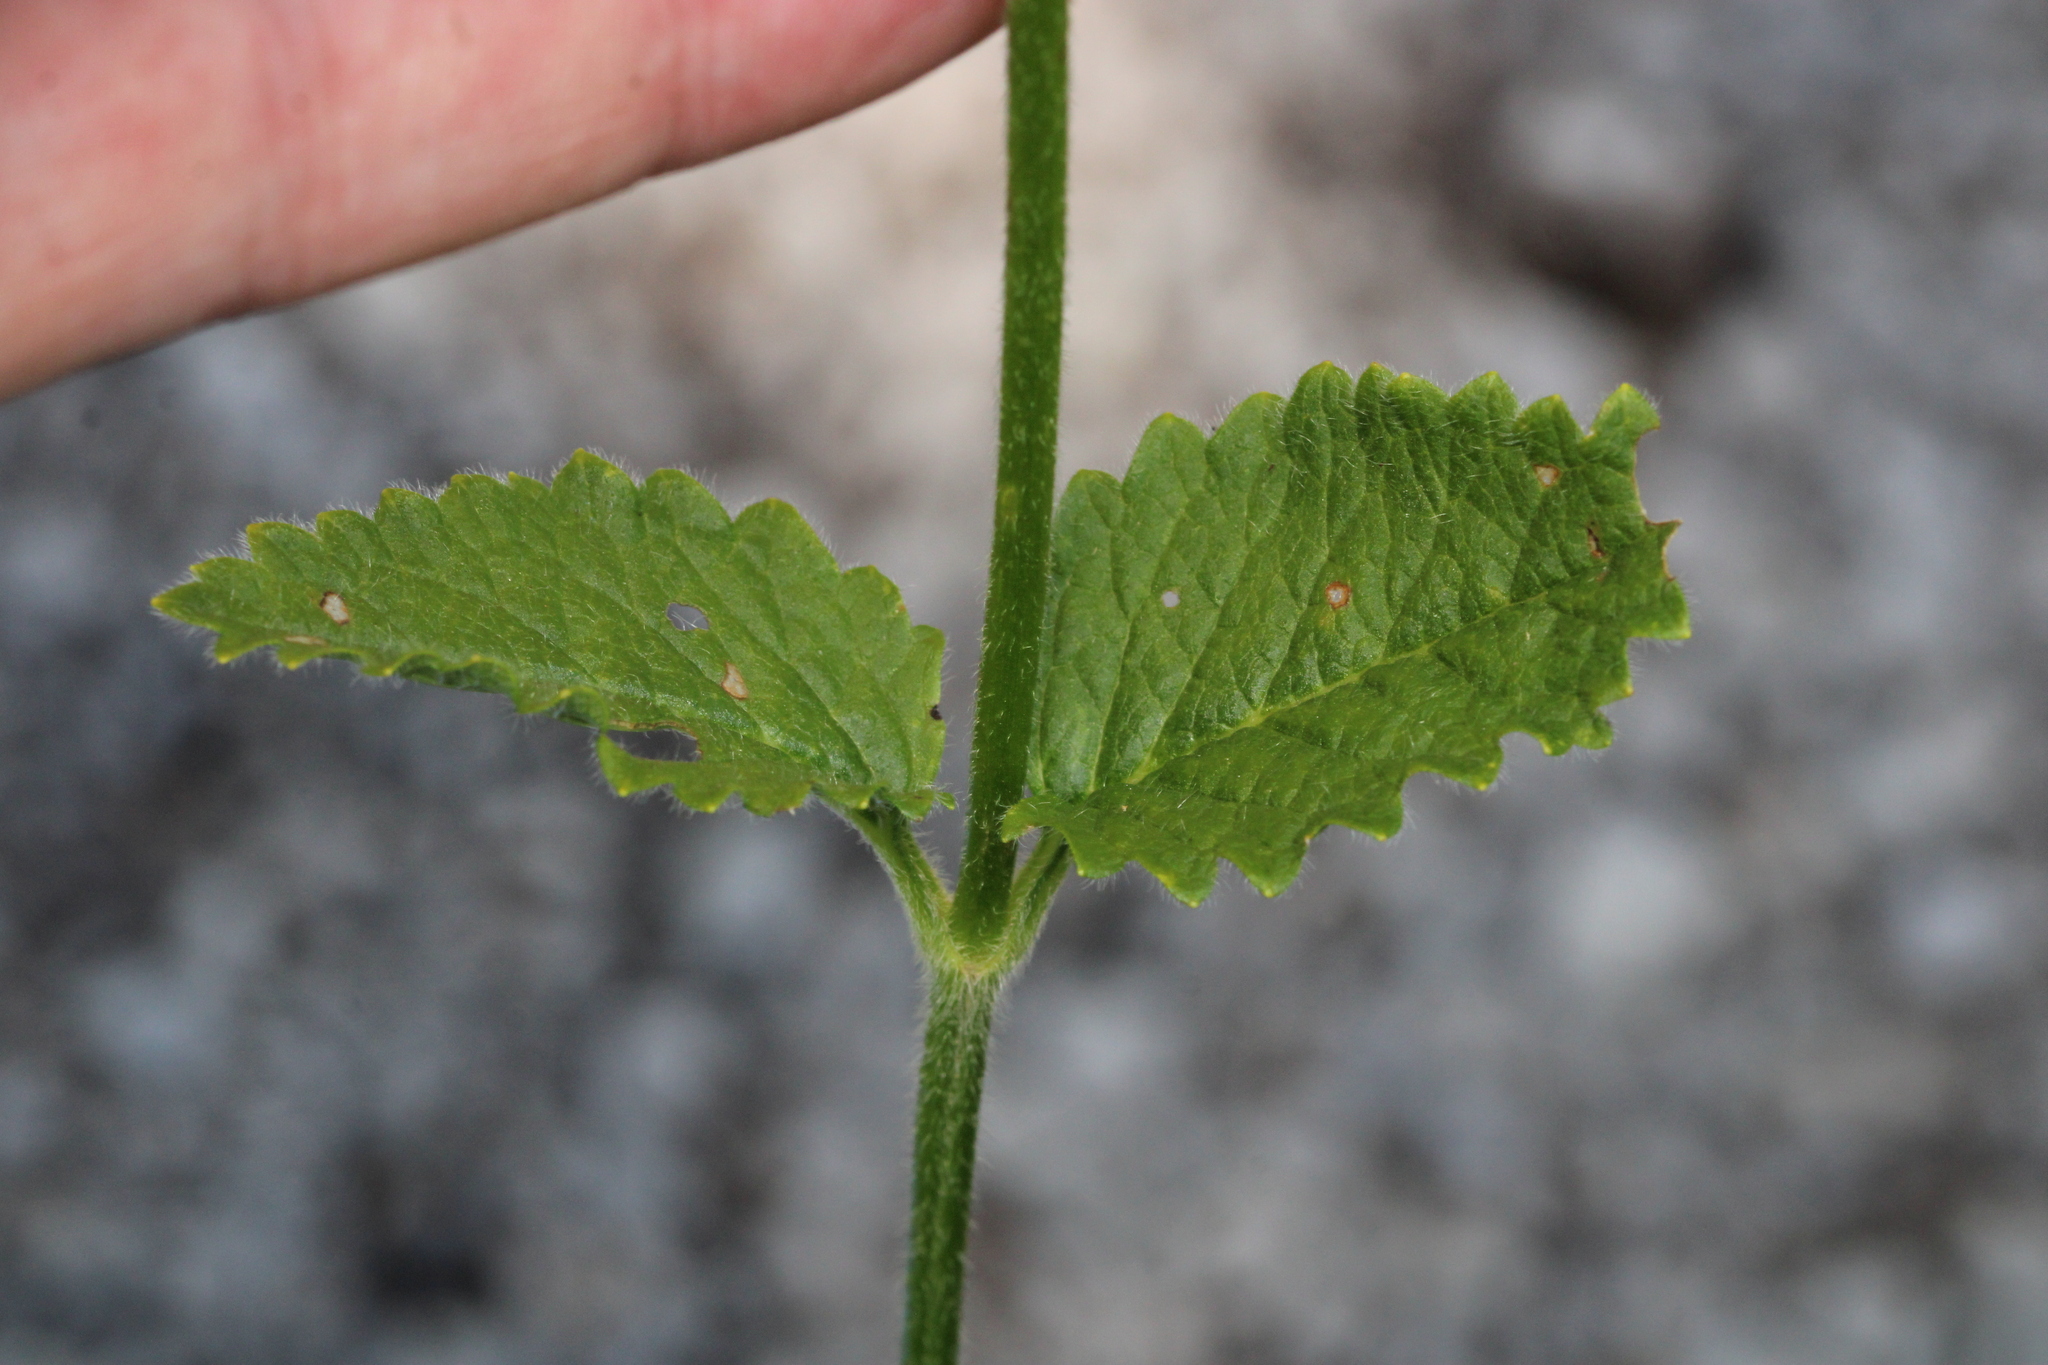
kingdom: Plantae
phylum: Tracheophyta
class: Magnoliopsida
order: Lamiales
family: Lamiaceae
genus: Betonica
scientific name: Betonica alopecuros
